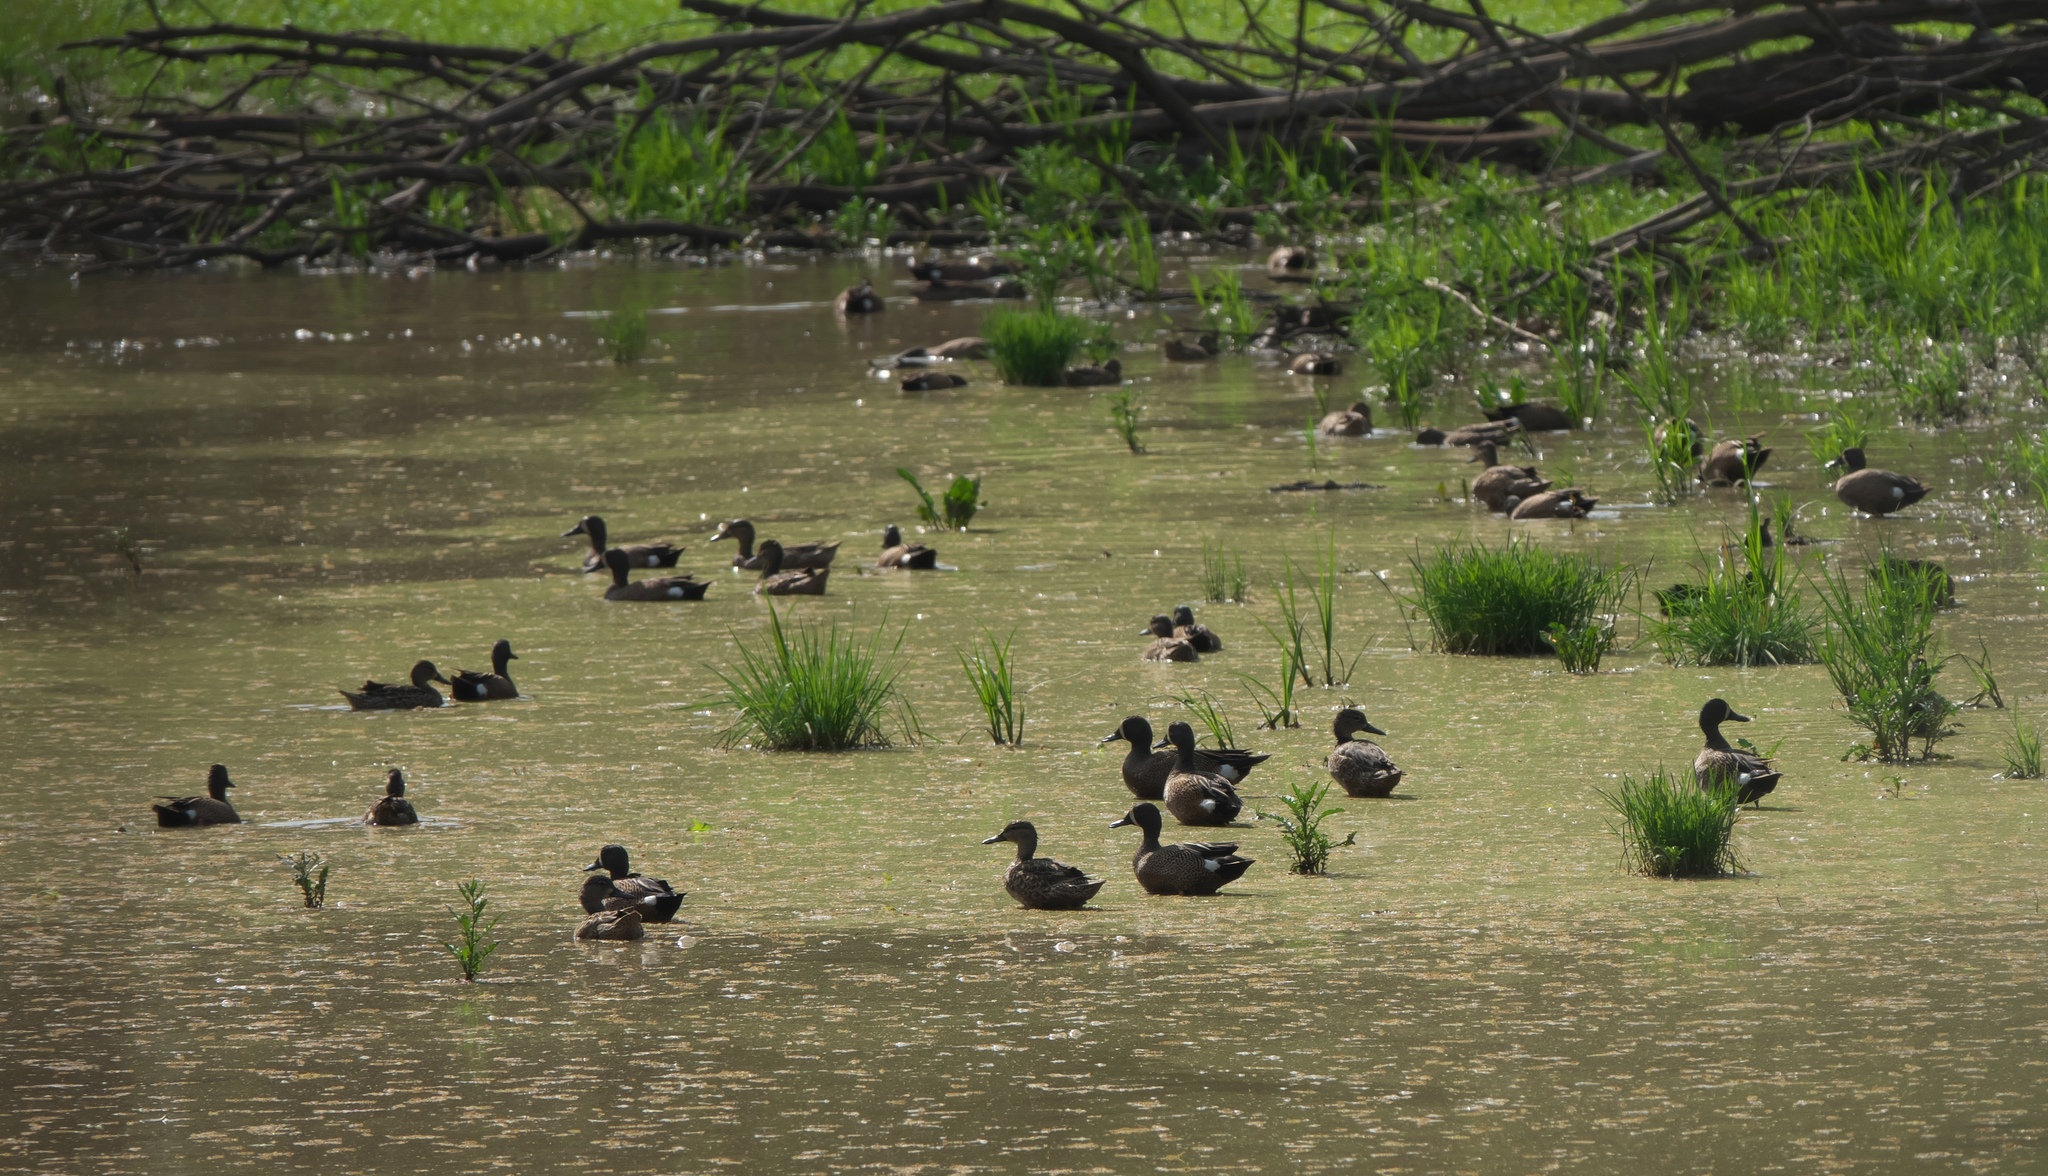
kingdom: Animalia
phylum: Chordata
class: Aves
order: Anseriformes
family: Anatidae
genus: Spatula
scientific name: Spatula discors
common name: Blue-winged teal
